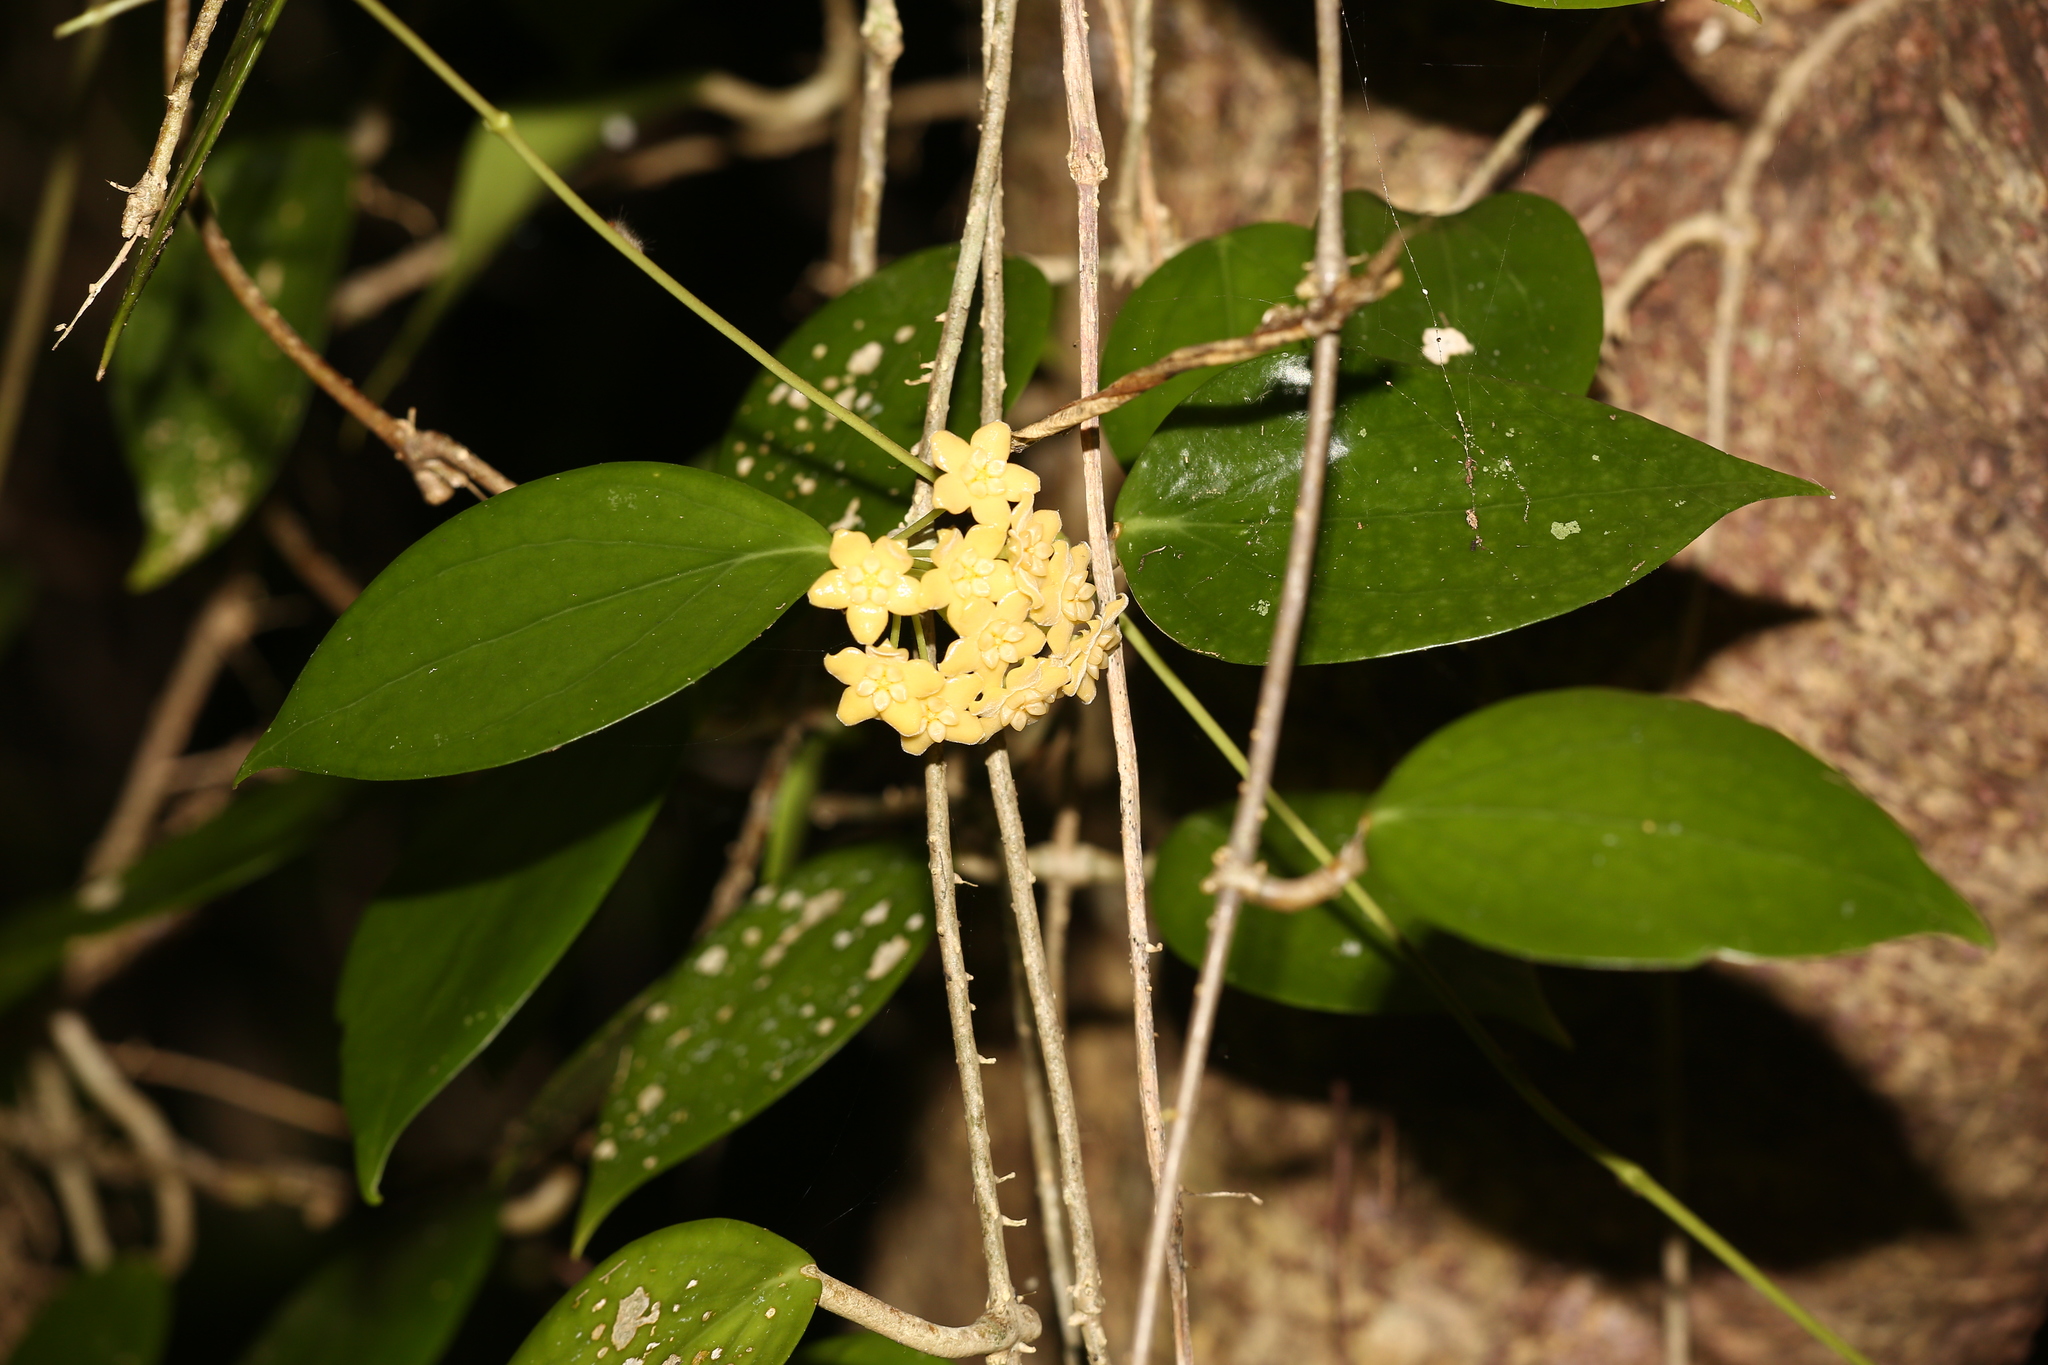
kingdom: Plantae
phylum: Tracheophyta
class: Magnoliopsida
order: Gentianales
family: Apocynaceae
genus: Hoya
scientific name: Hoya nicholsoniae
